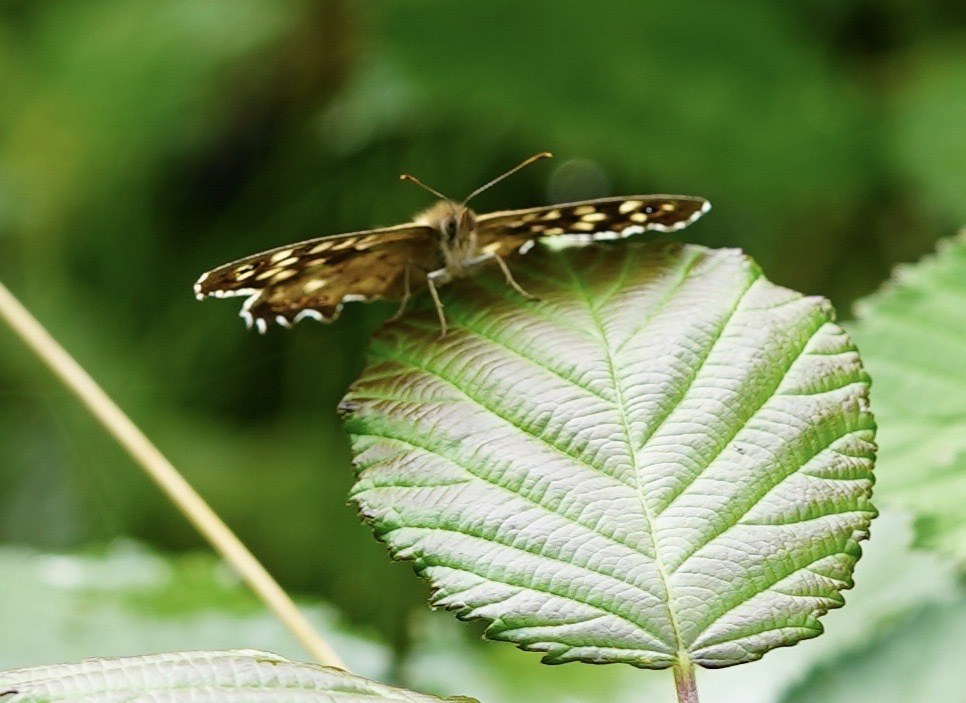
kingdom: Animalia
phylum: Arthropoda
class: Insecta
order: Lepidoptera
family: Nymphalidae
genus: Pararge
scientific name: Pararge aegeria
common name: Speckled wood
